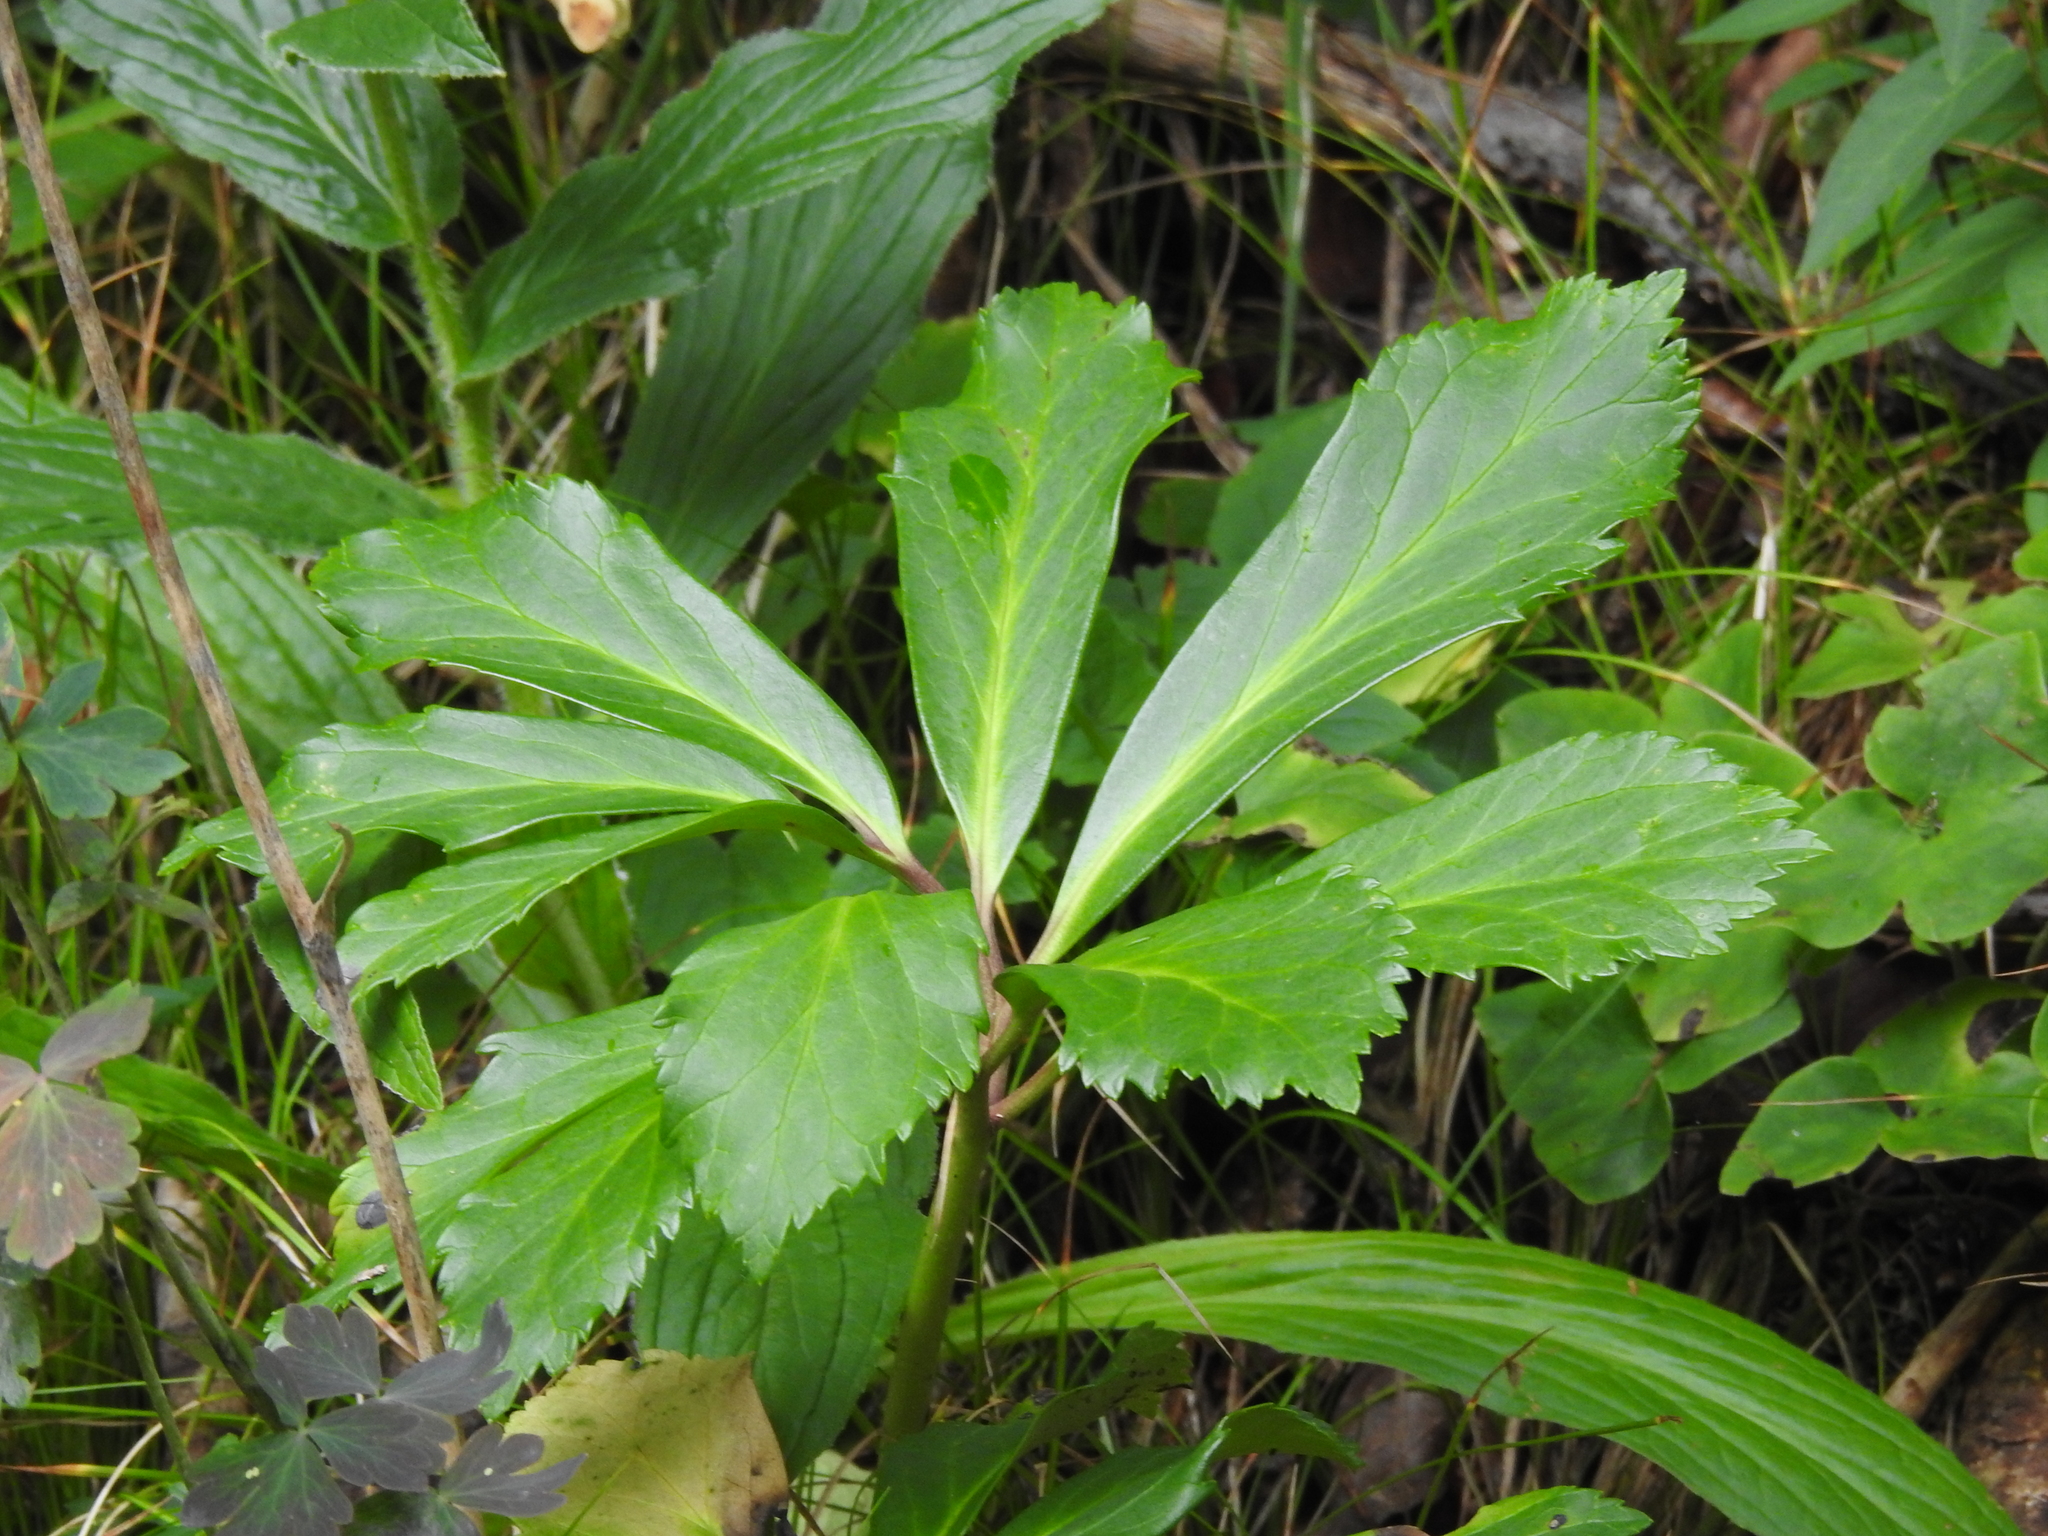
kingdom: Plantae
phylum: Tracheophyta
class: Magnoliopsida
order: Ranunculales
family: Ranunculaceae
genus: Helleborus
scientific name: Helleborus niger
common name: Black hellebore
